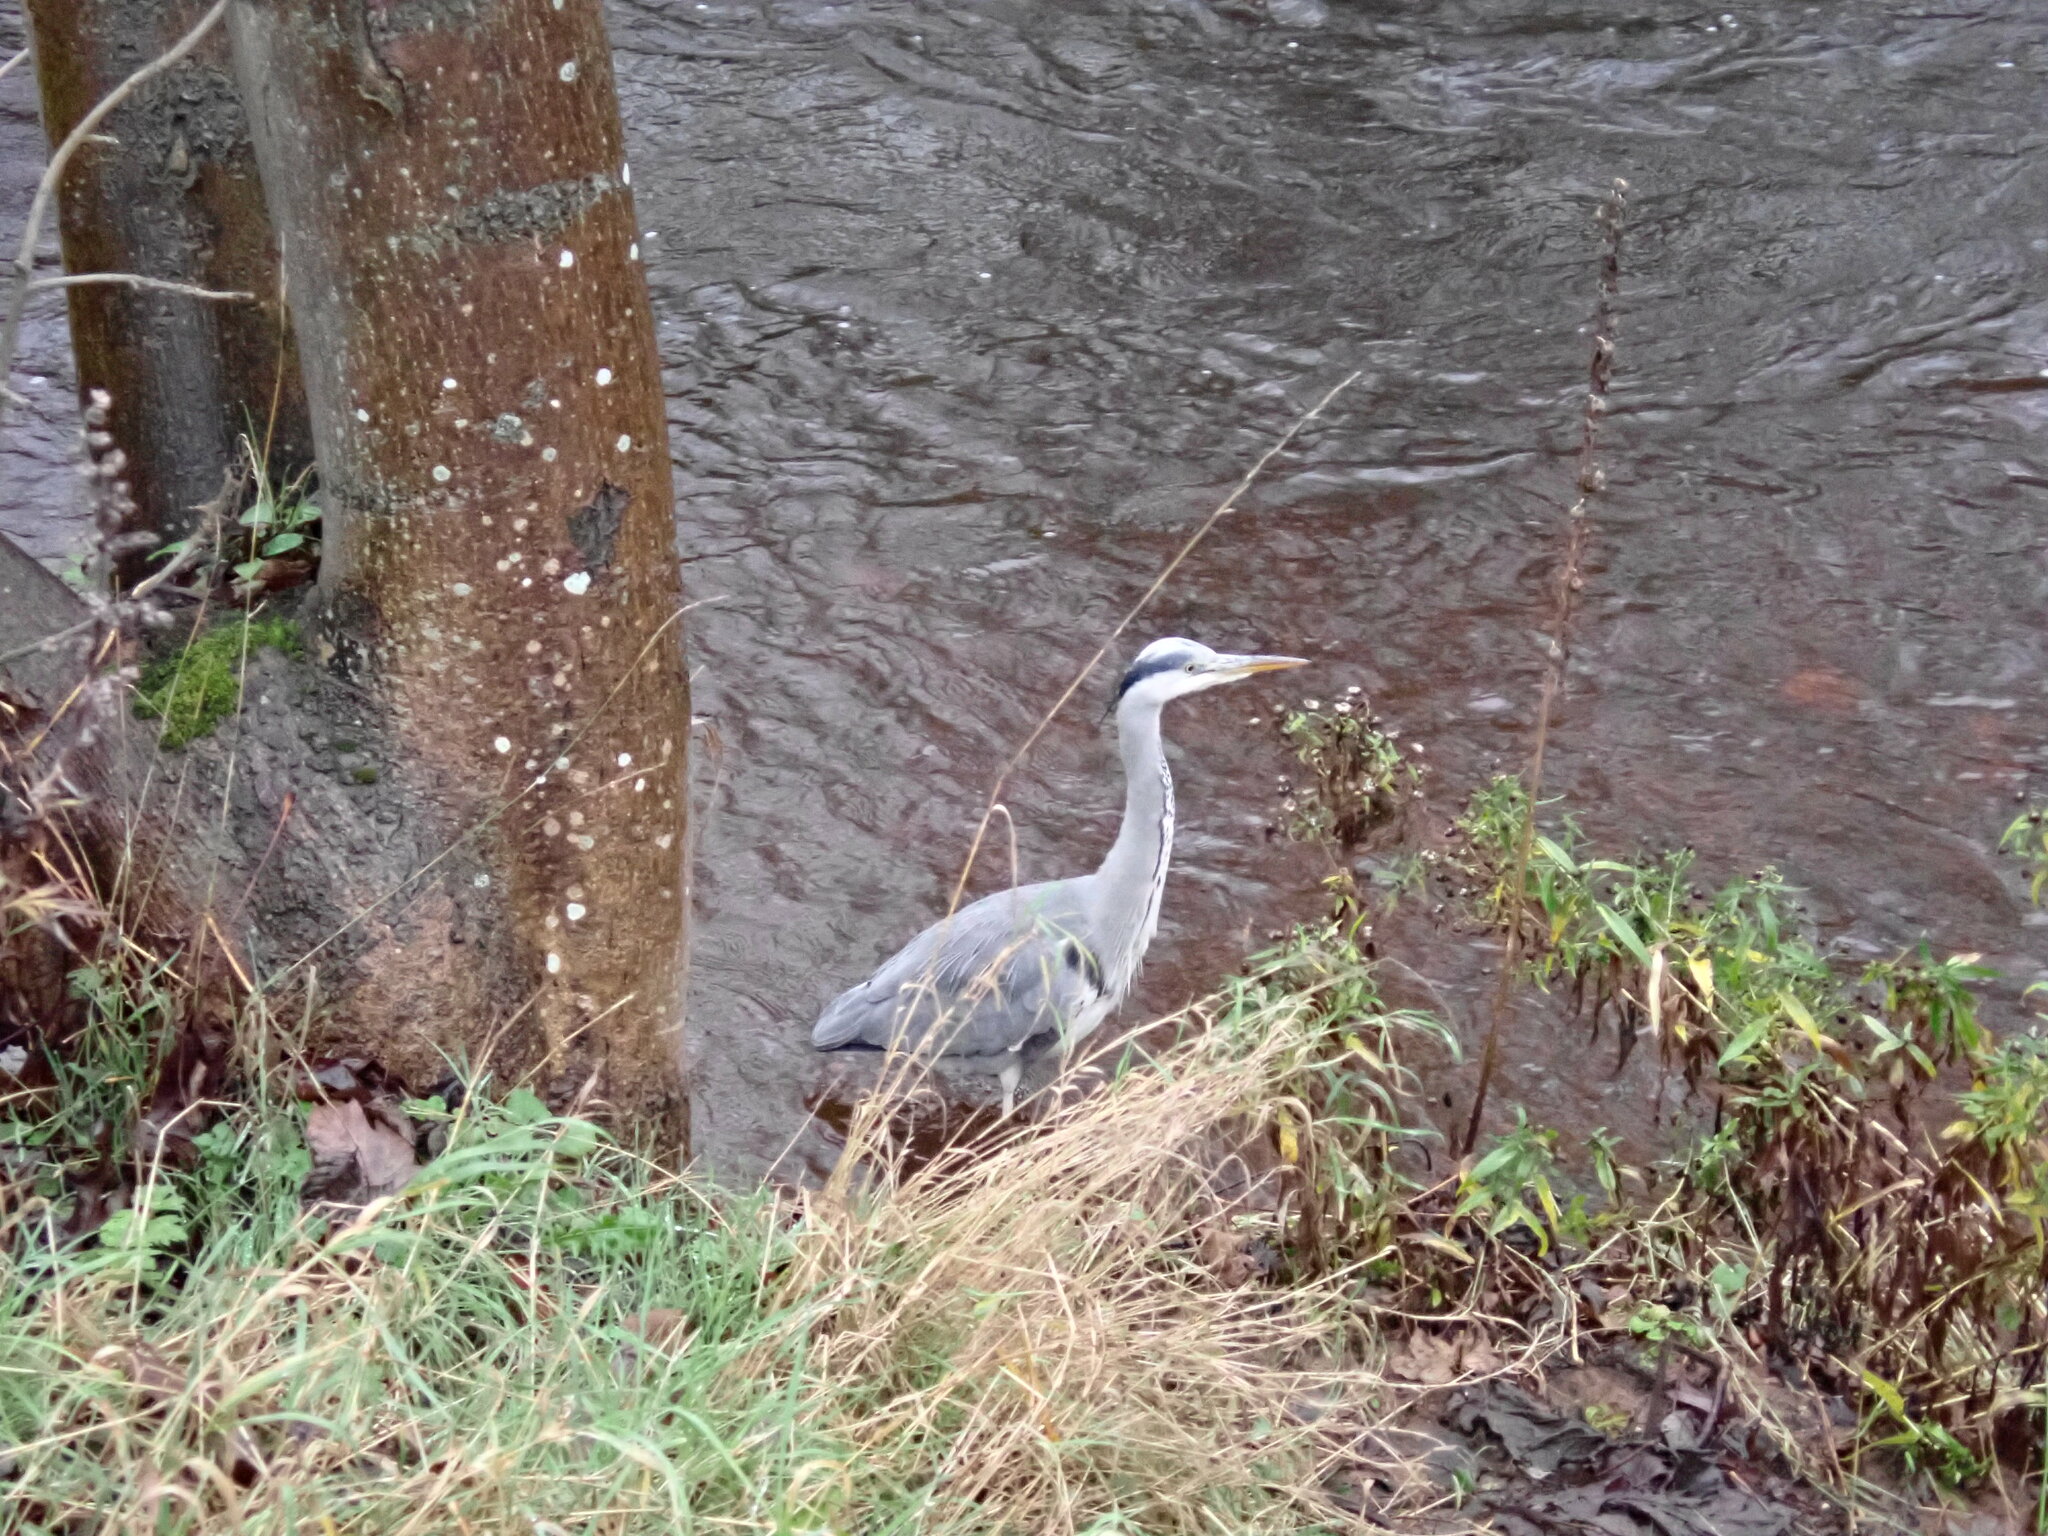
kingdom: Animalia
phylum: Chordata
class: Aves
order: Pelecaniformes
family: Ardeidae
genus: Ardea
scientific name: Ardea cinerea
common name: Grey heron
